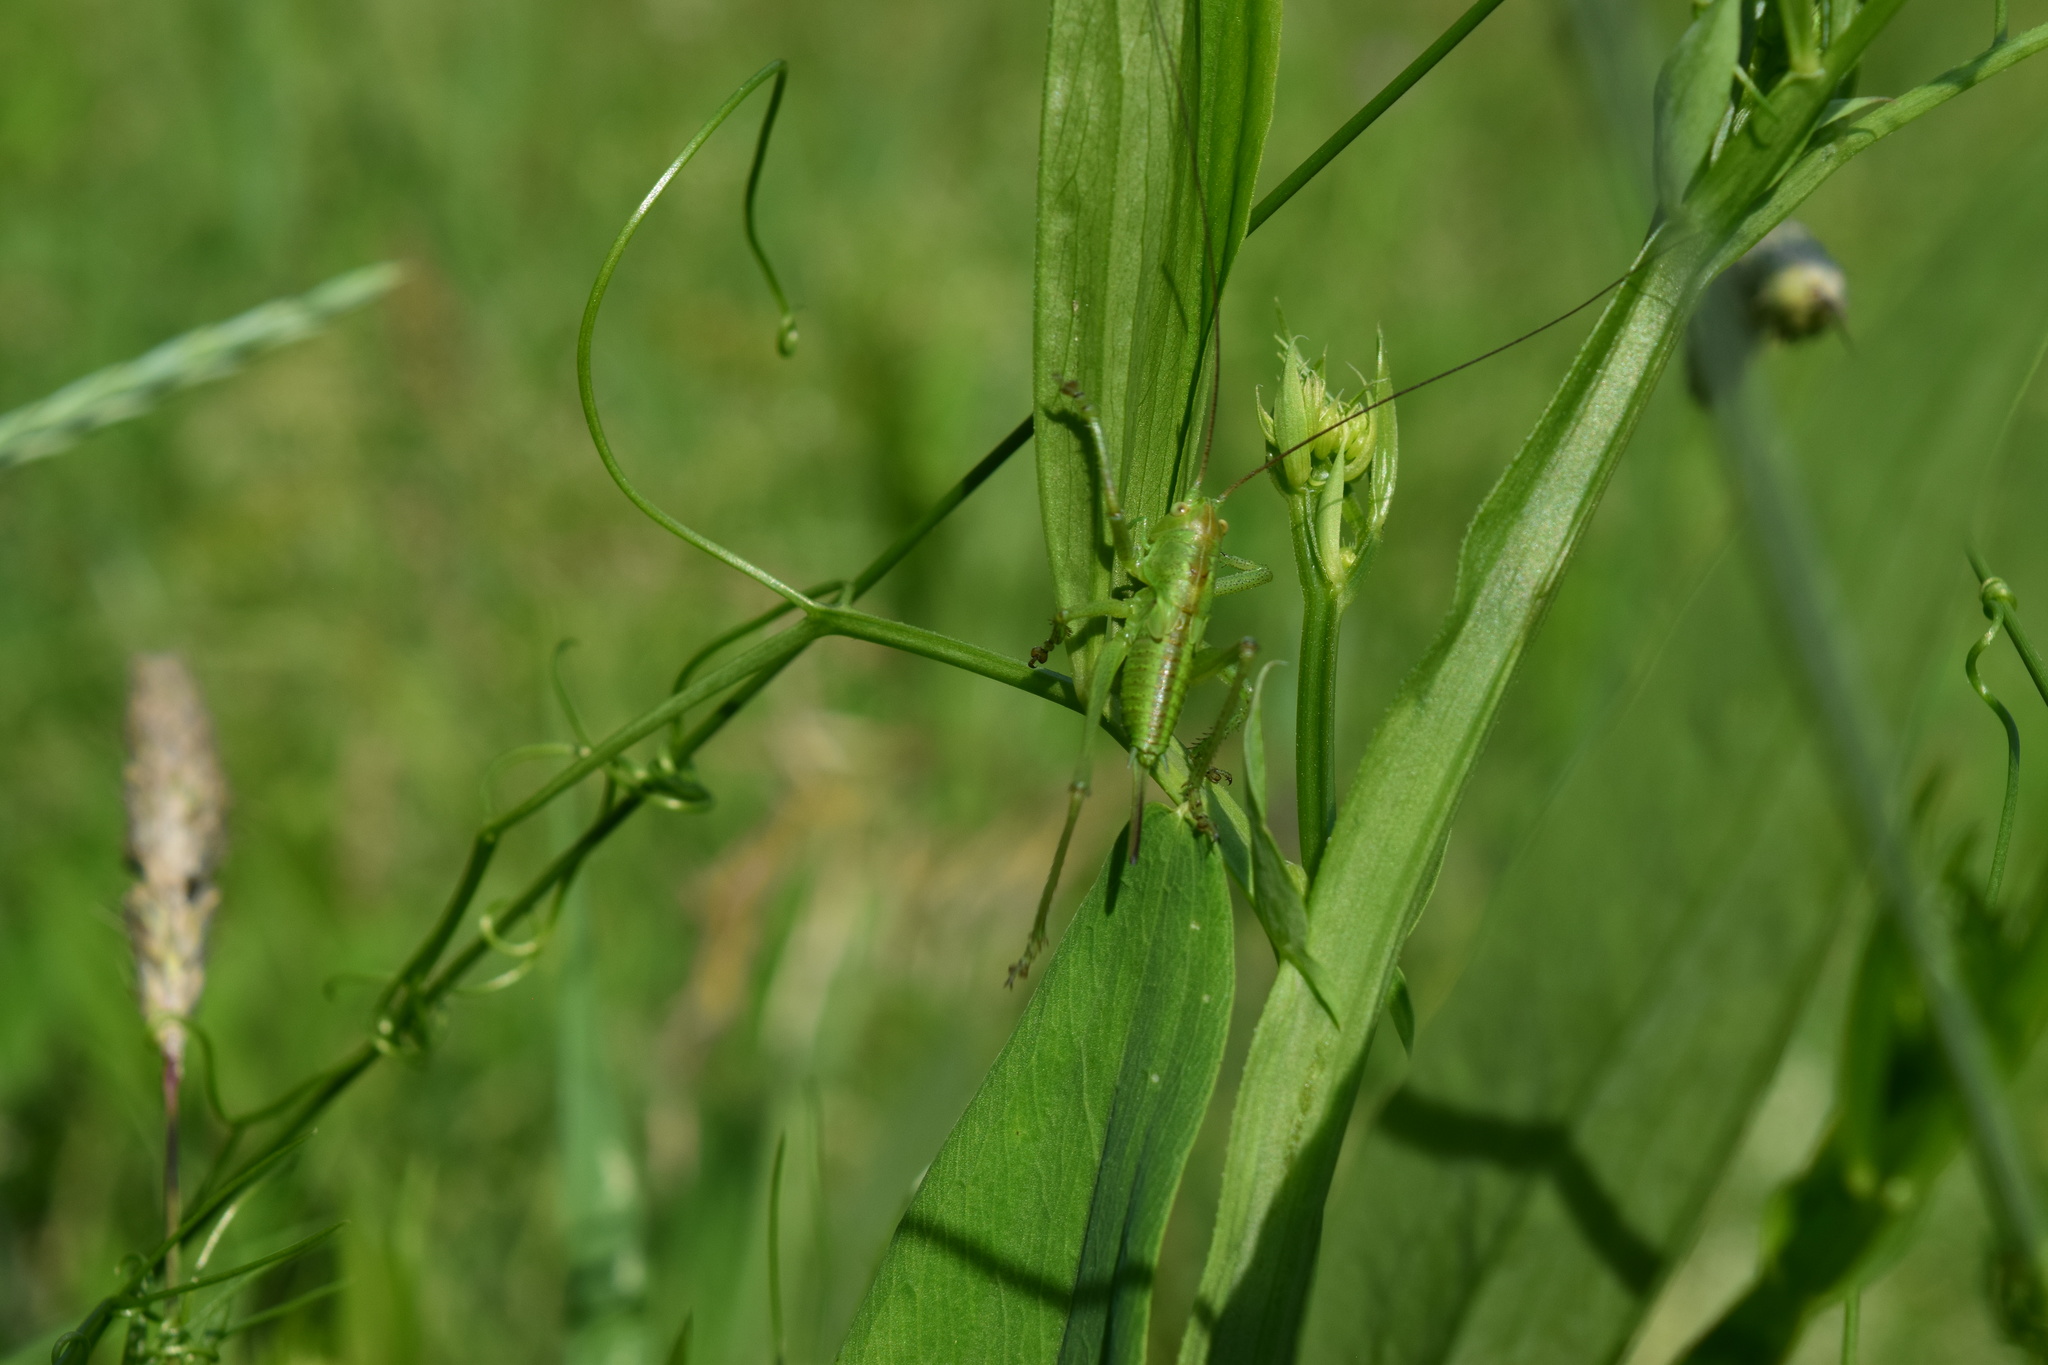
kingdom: Animalia
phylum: Arthropoda
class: Insecta
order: Orthoptera
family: Tettigoniidae
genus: Tettigonia
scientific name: Tettigonia cantans
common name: Upland green bush-cricket
